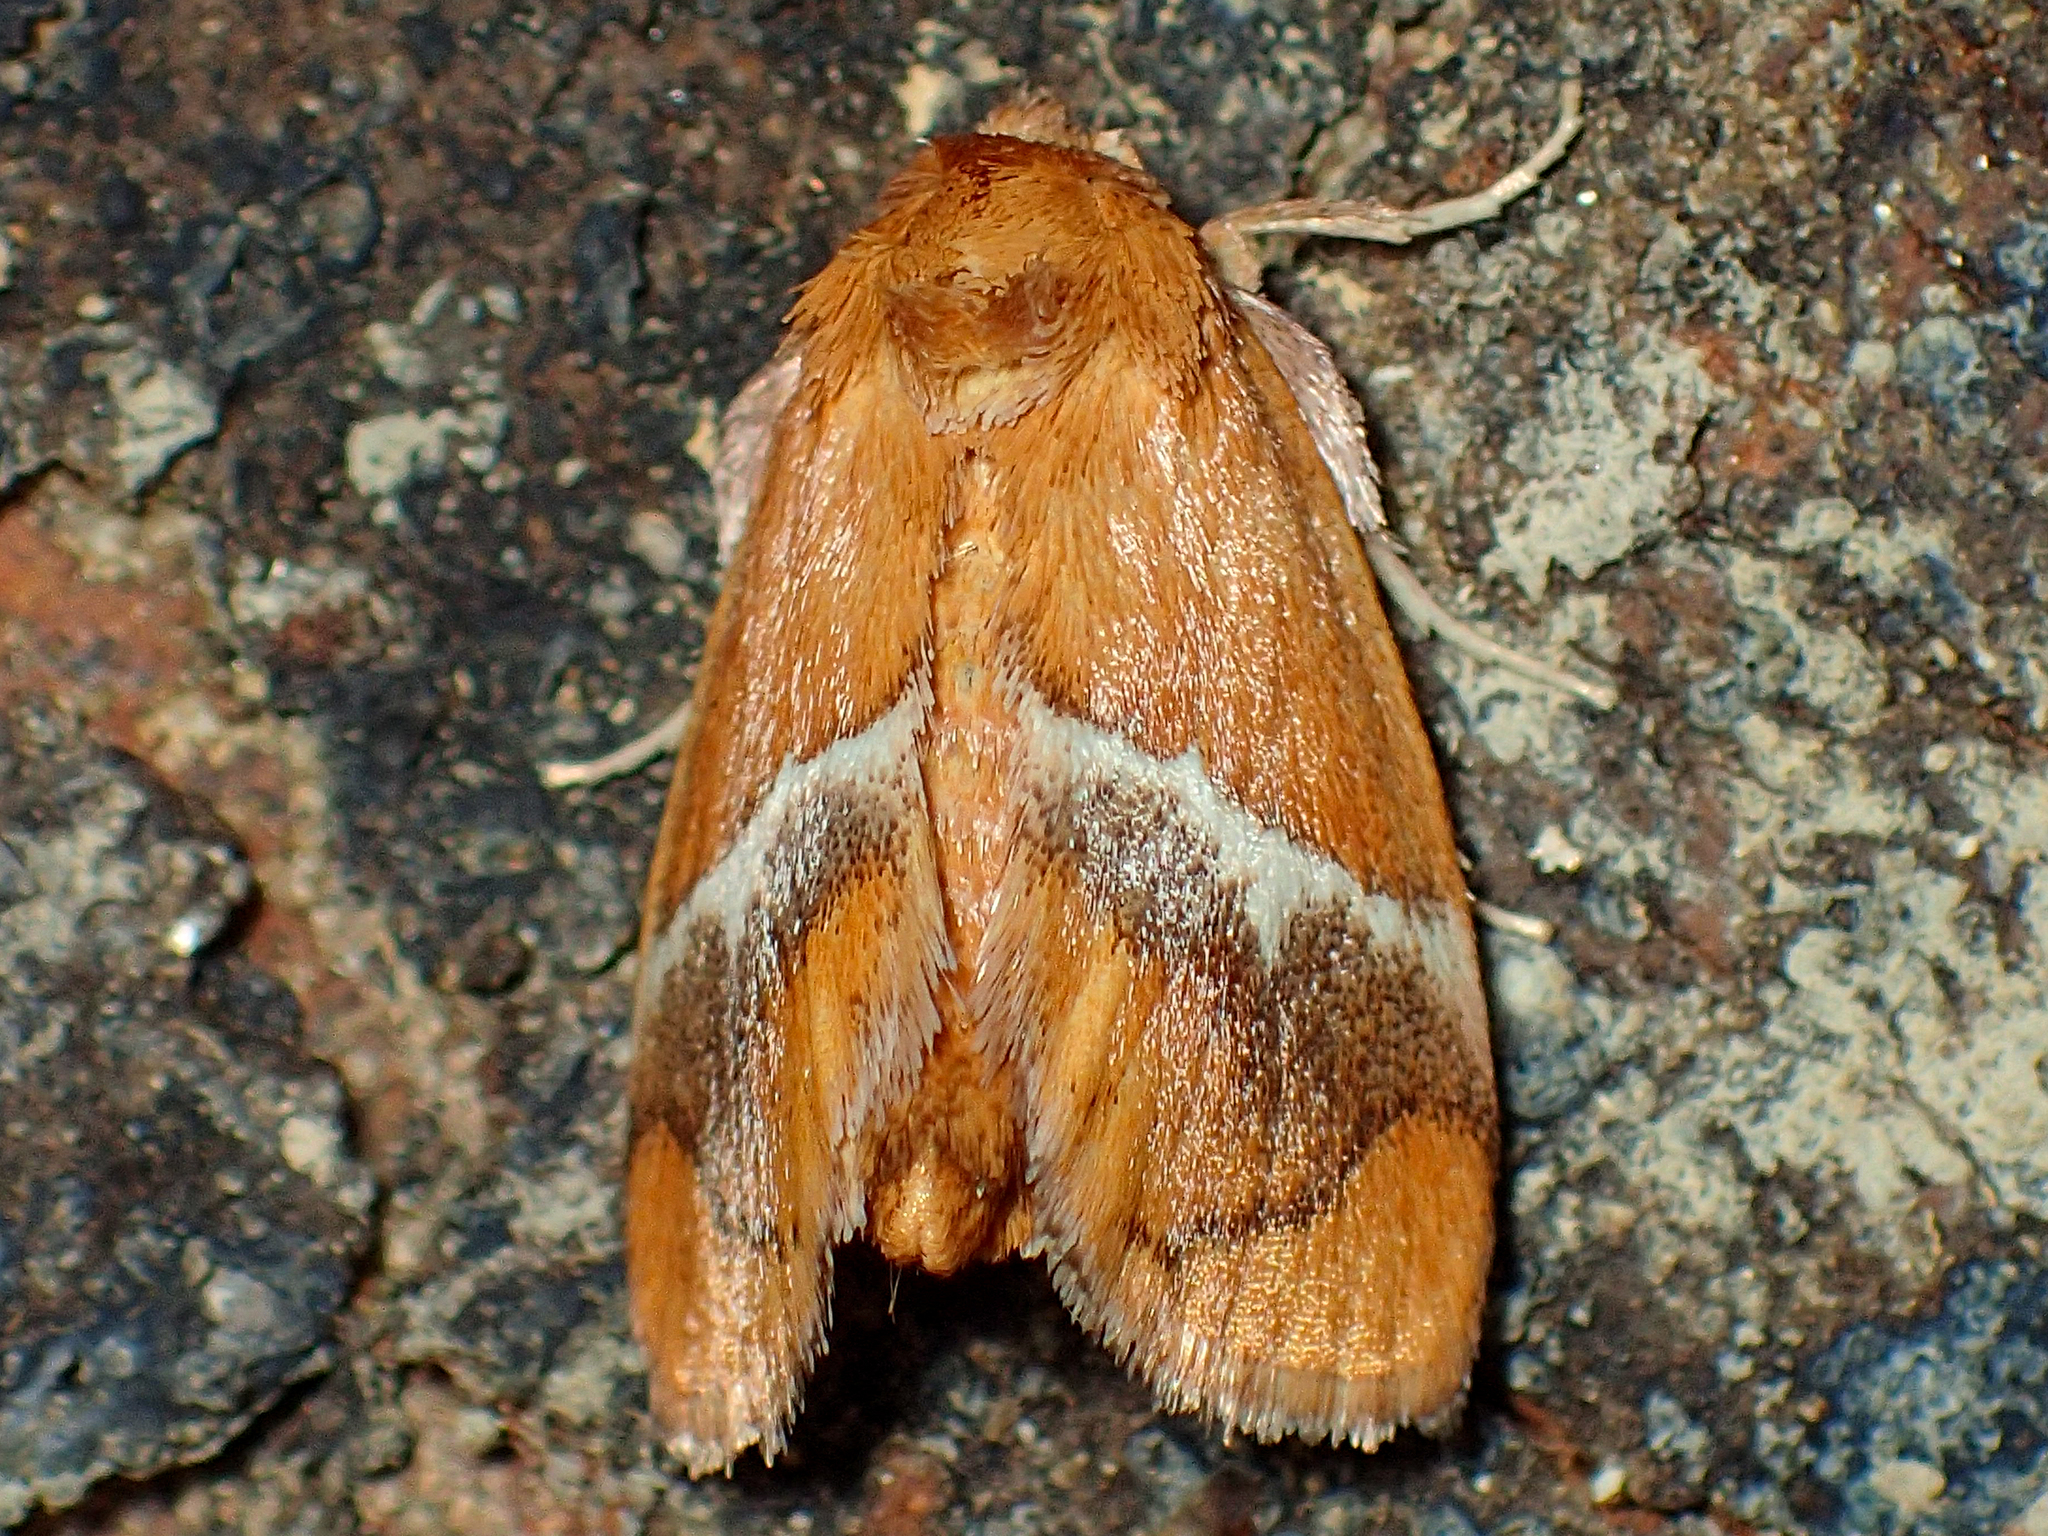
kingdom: Animalia
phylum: Arthropoda
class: Insecta
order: Lepidoptera
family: Limacodidae
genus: Lithacodes
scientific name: Lithacodes fasciola
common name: Yellow-shouldered slug moth
